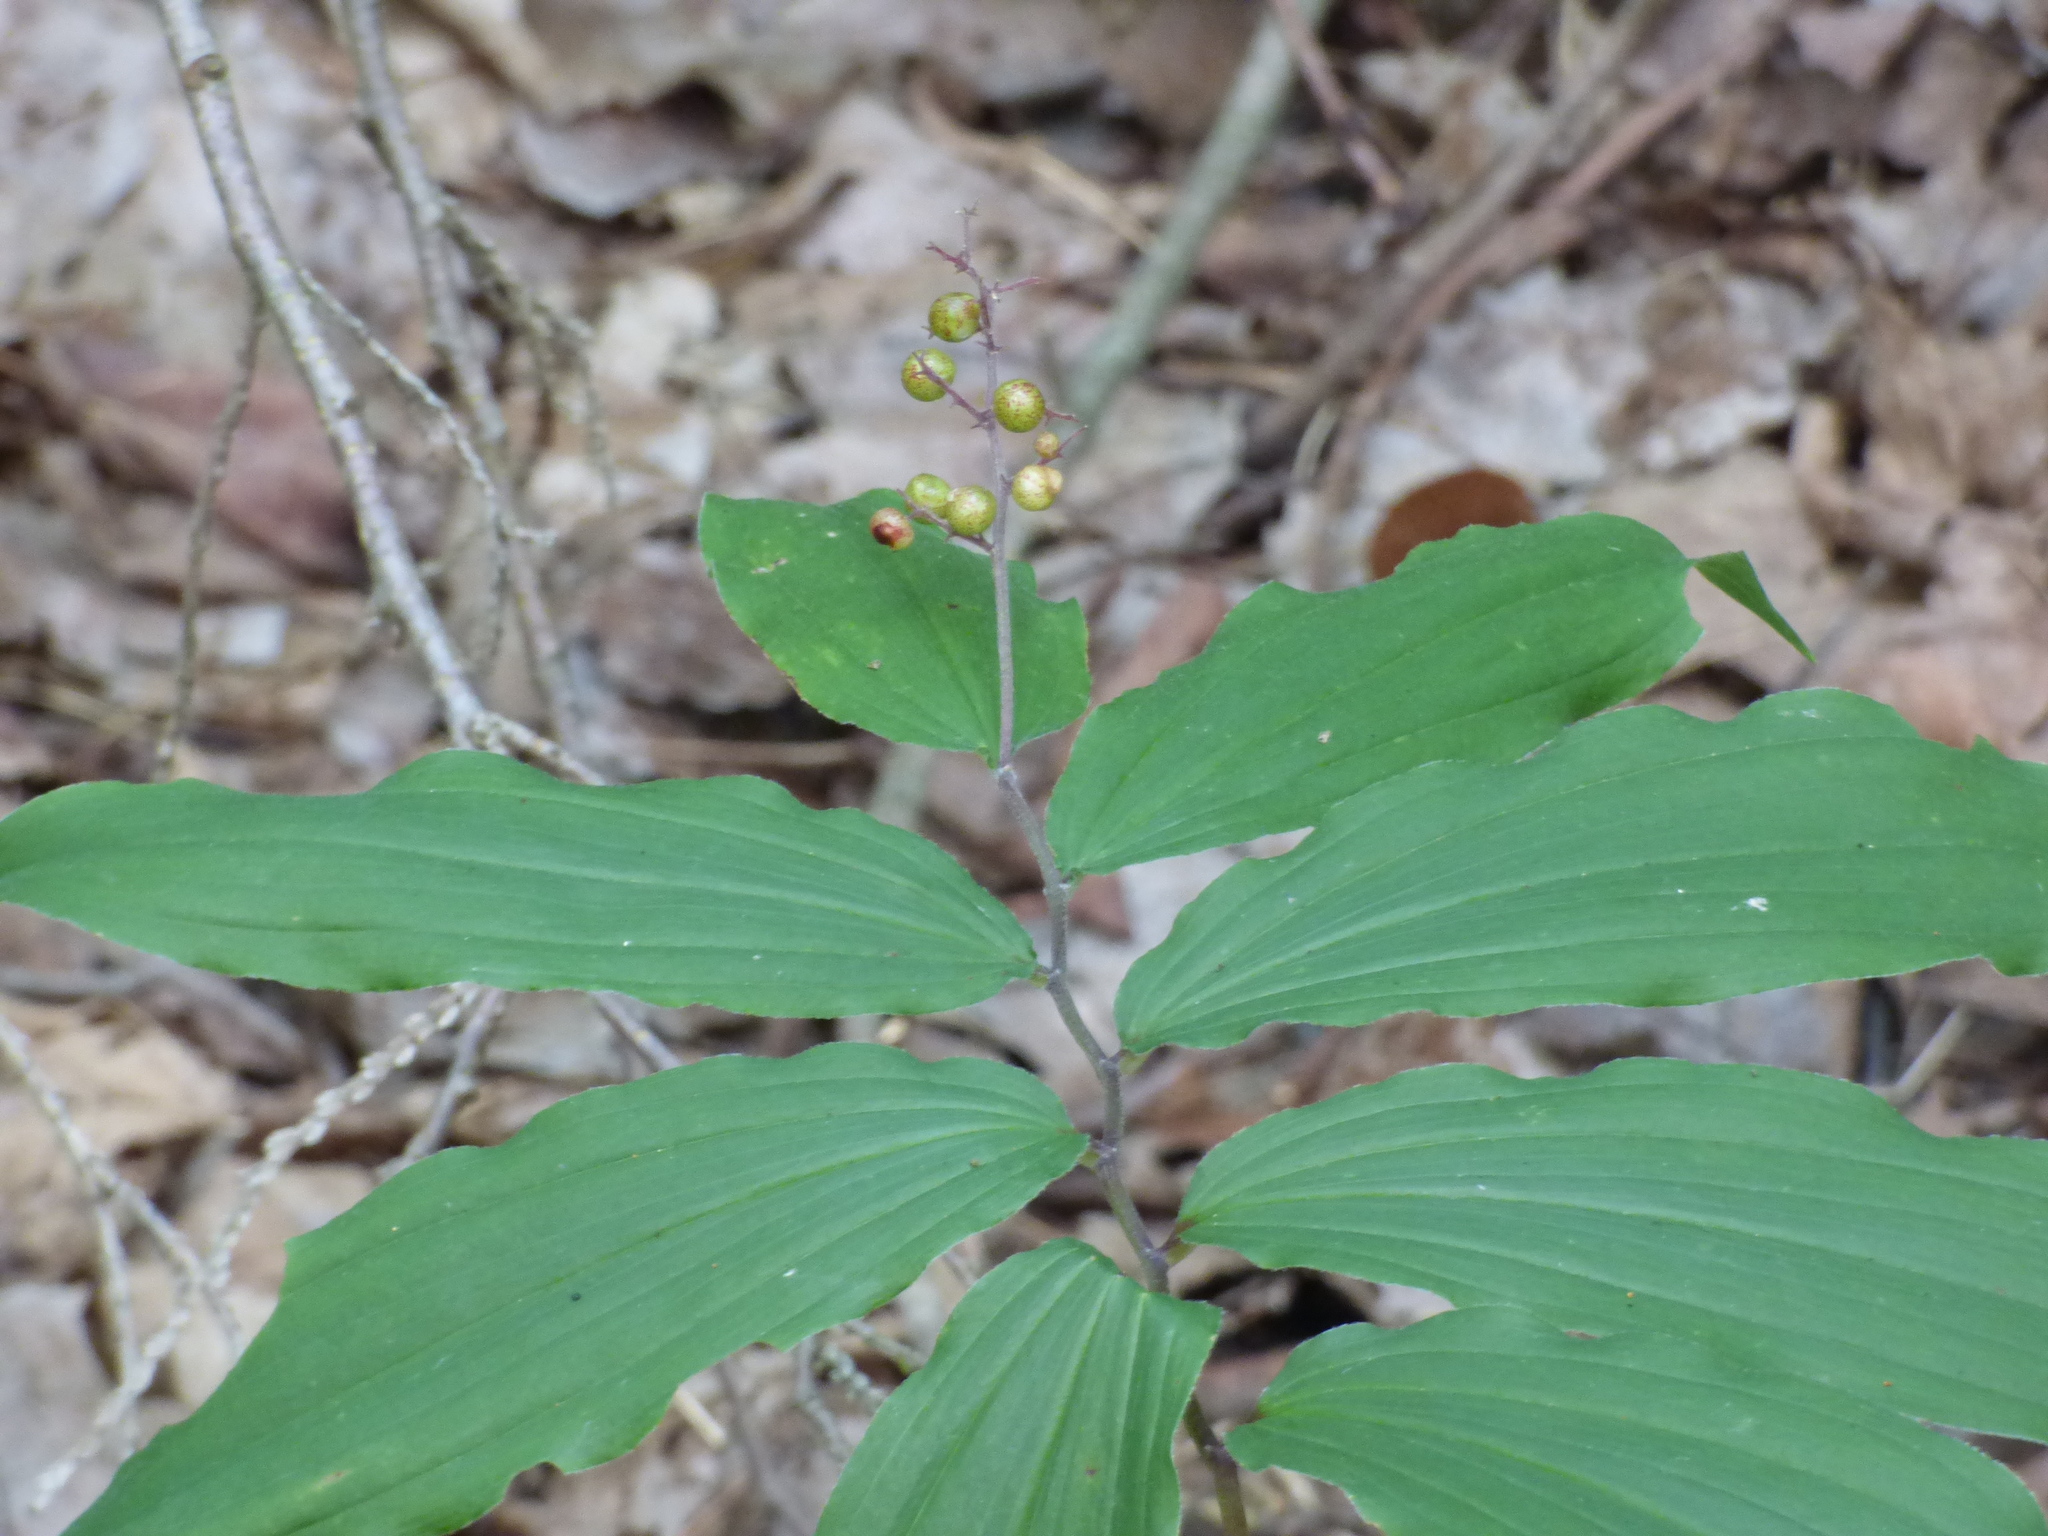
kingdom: Plantae
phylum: Tracheophyta
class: Liliopsida
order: Asparagales
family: Asparagaceae
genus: Maianthemum
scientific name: Maianthemum racemosum
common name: False spikenard
